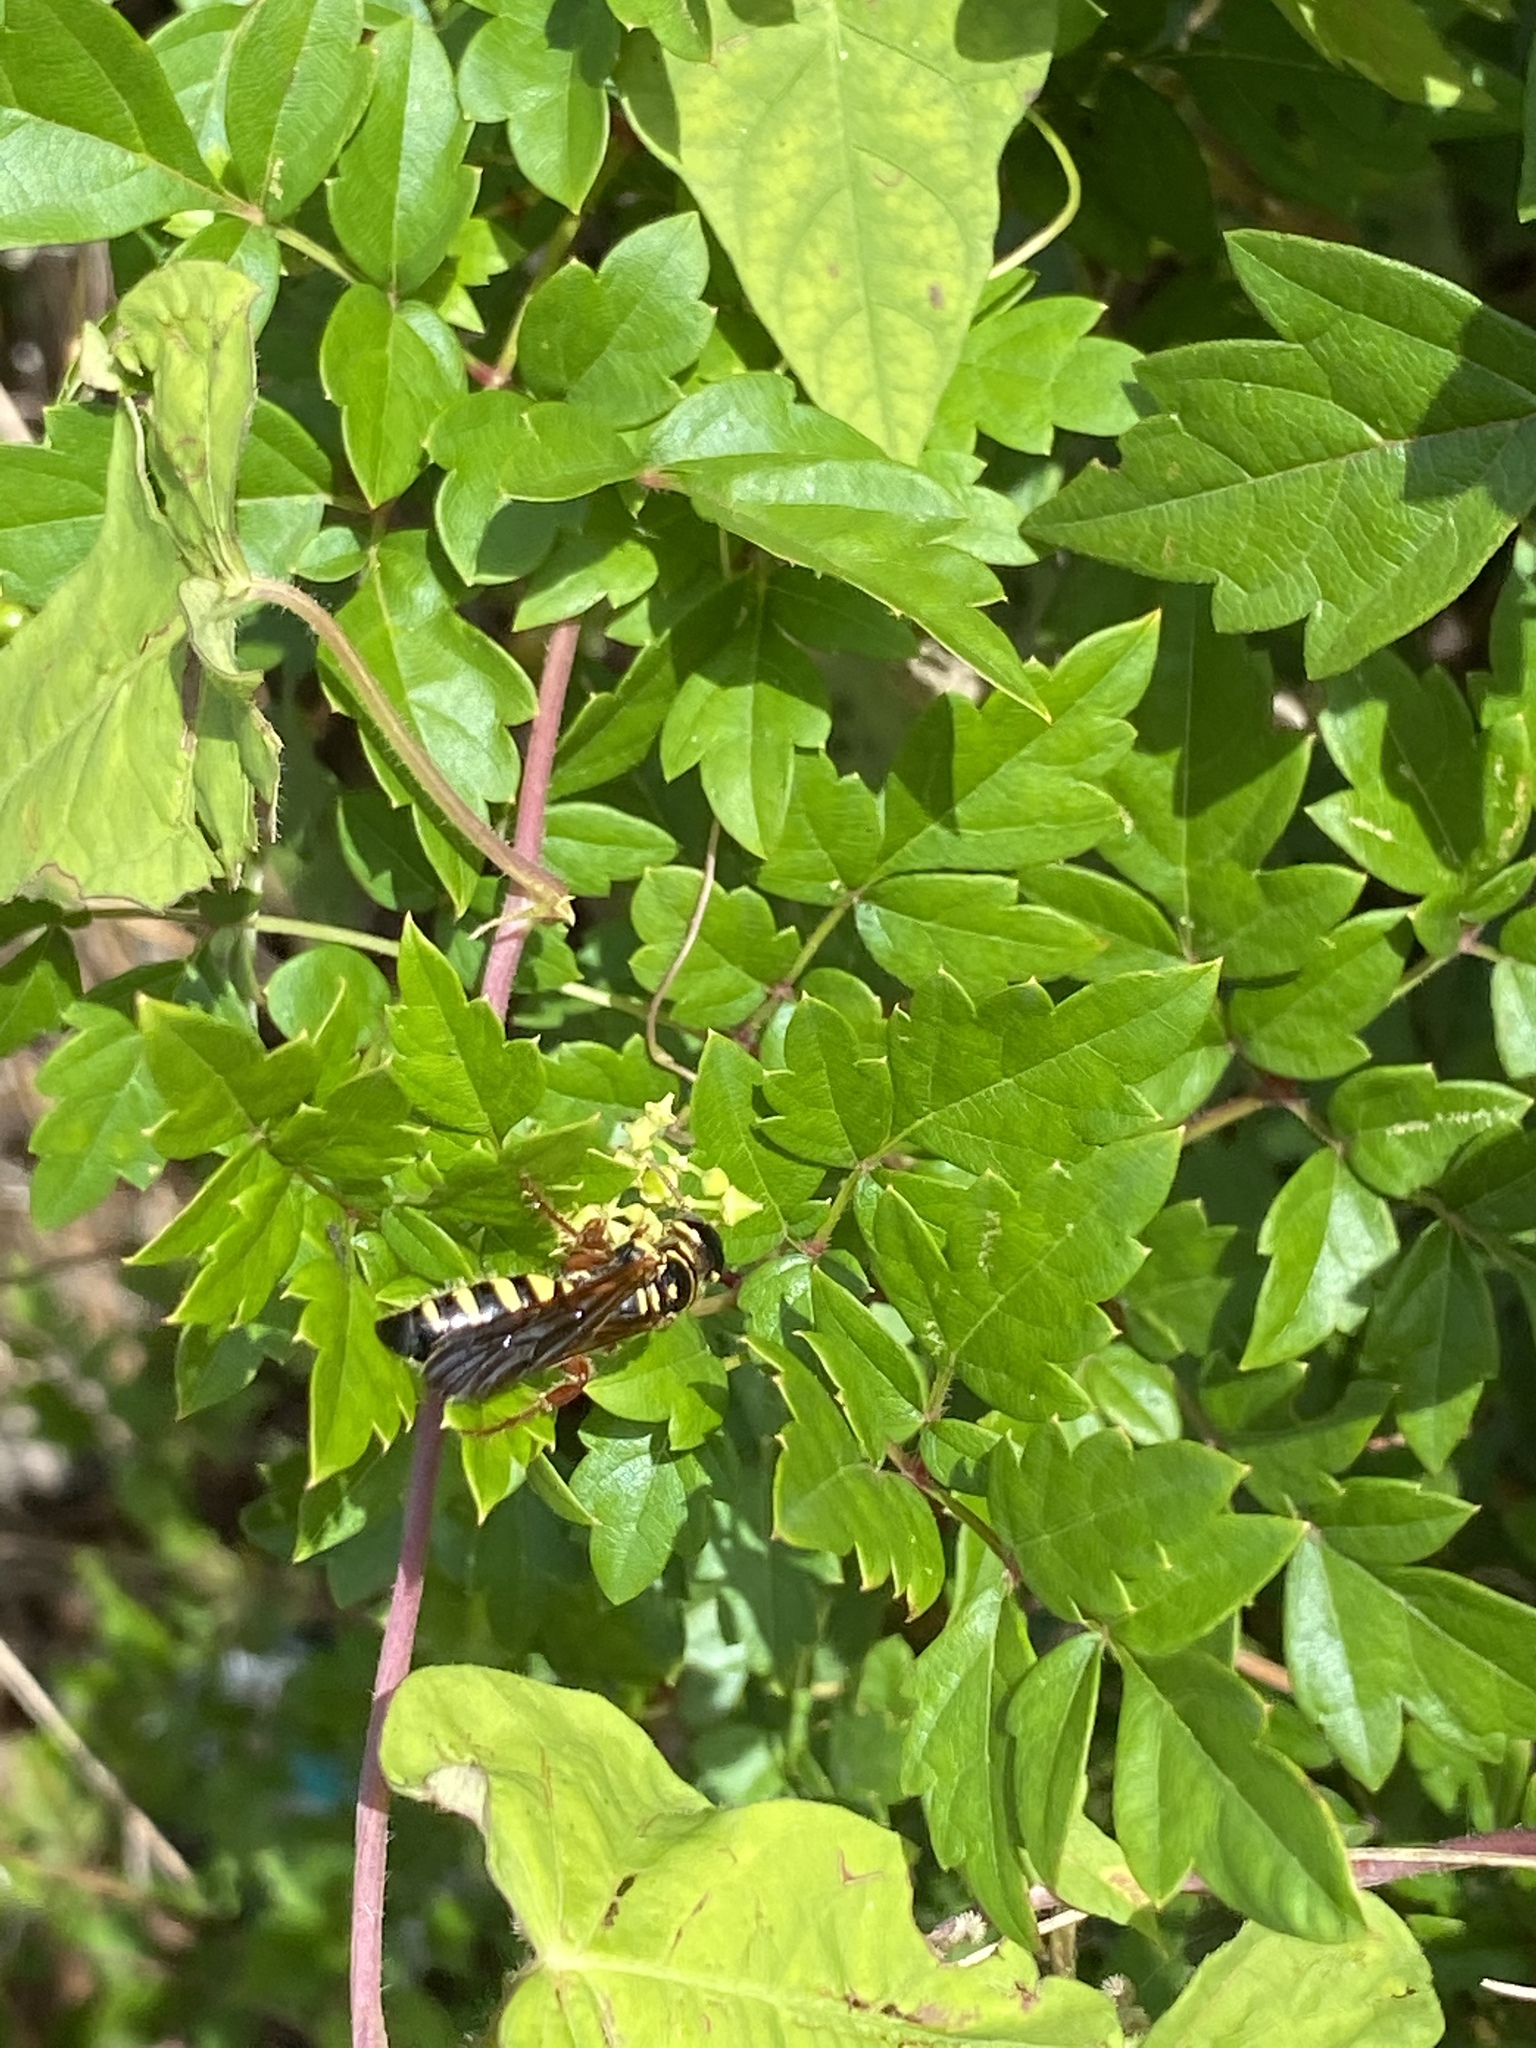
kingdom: Animalia
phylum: Arthropoda
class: Insecta
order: Hymenoptera
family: Tiphiidae
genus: Myzinum
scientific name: Myzinum quinquecinctum
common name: Five-banded thynnid wasp
